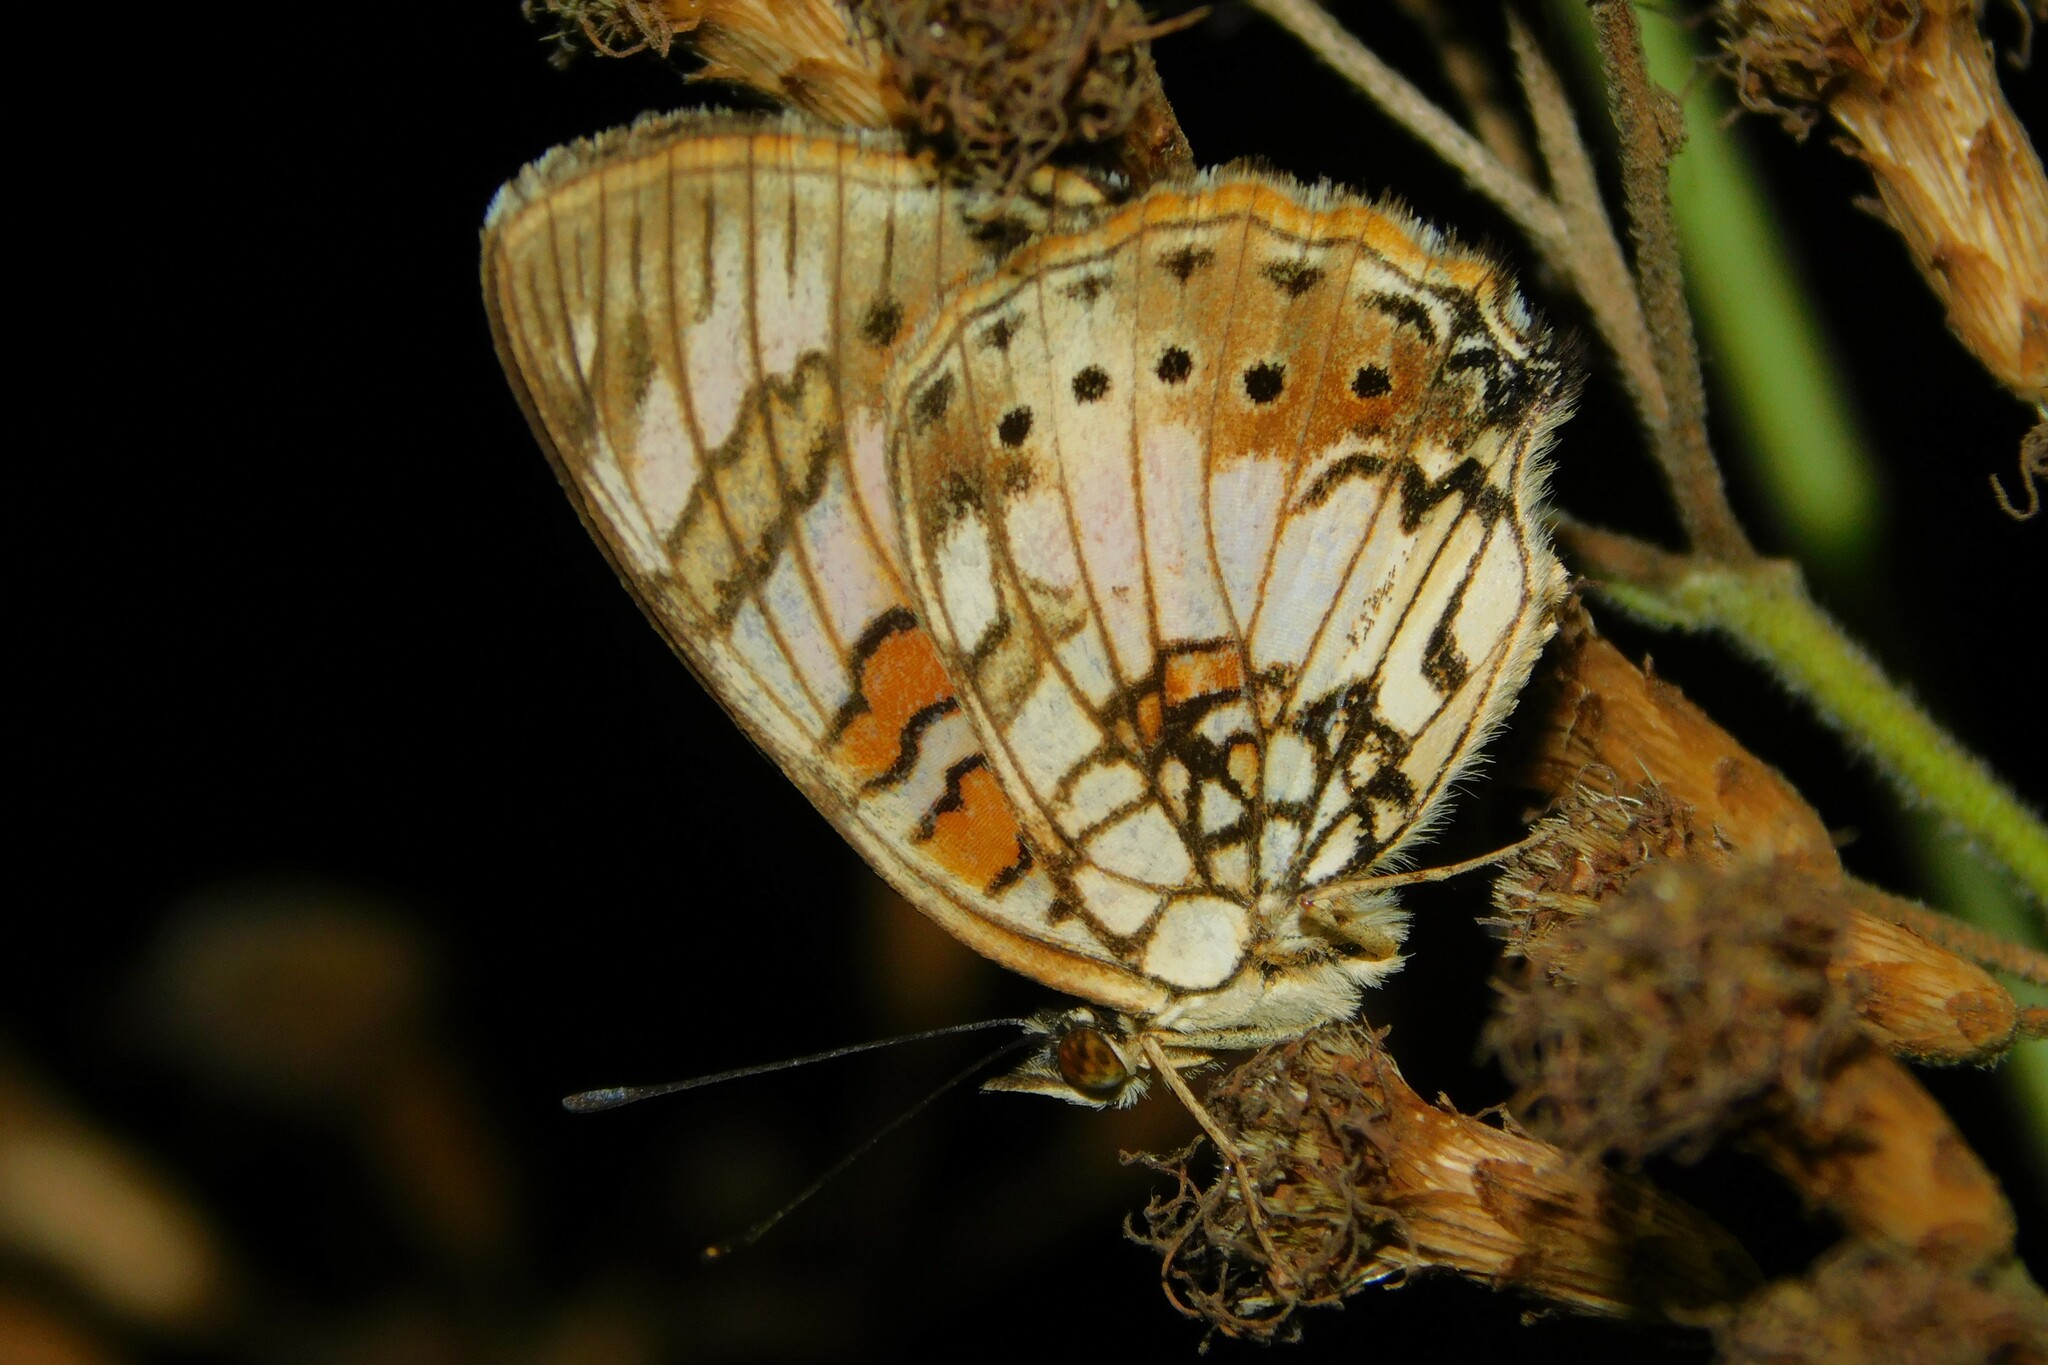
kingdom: Animalia
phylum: Arthropoda
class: Insecta
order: Lepidoptera
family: Nymphalidae
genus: Junonia
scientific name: Junonia sophia
